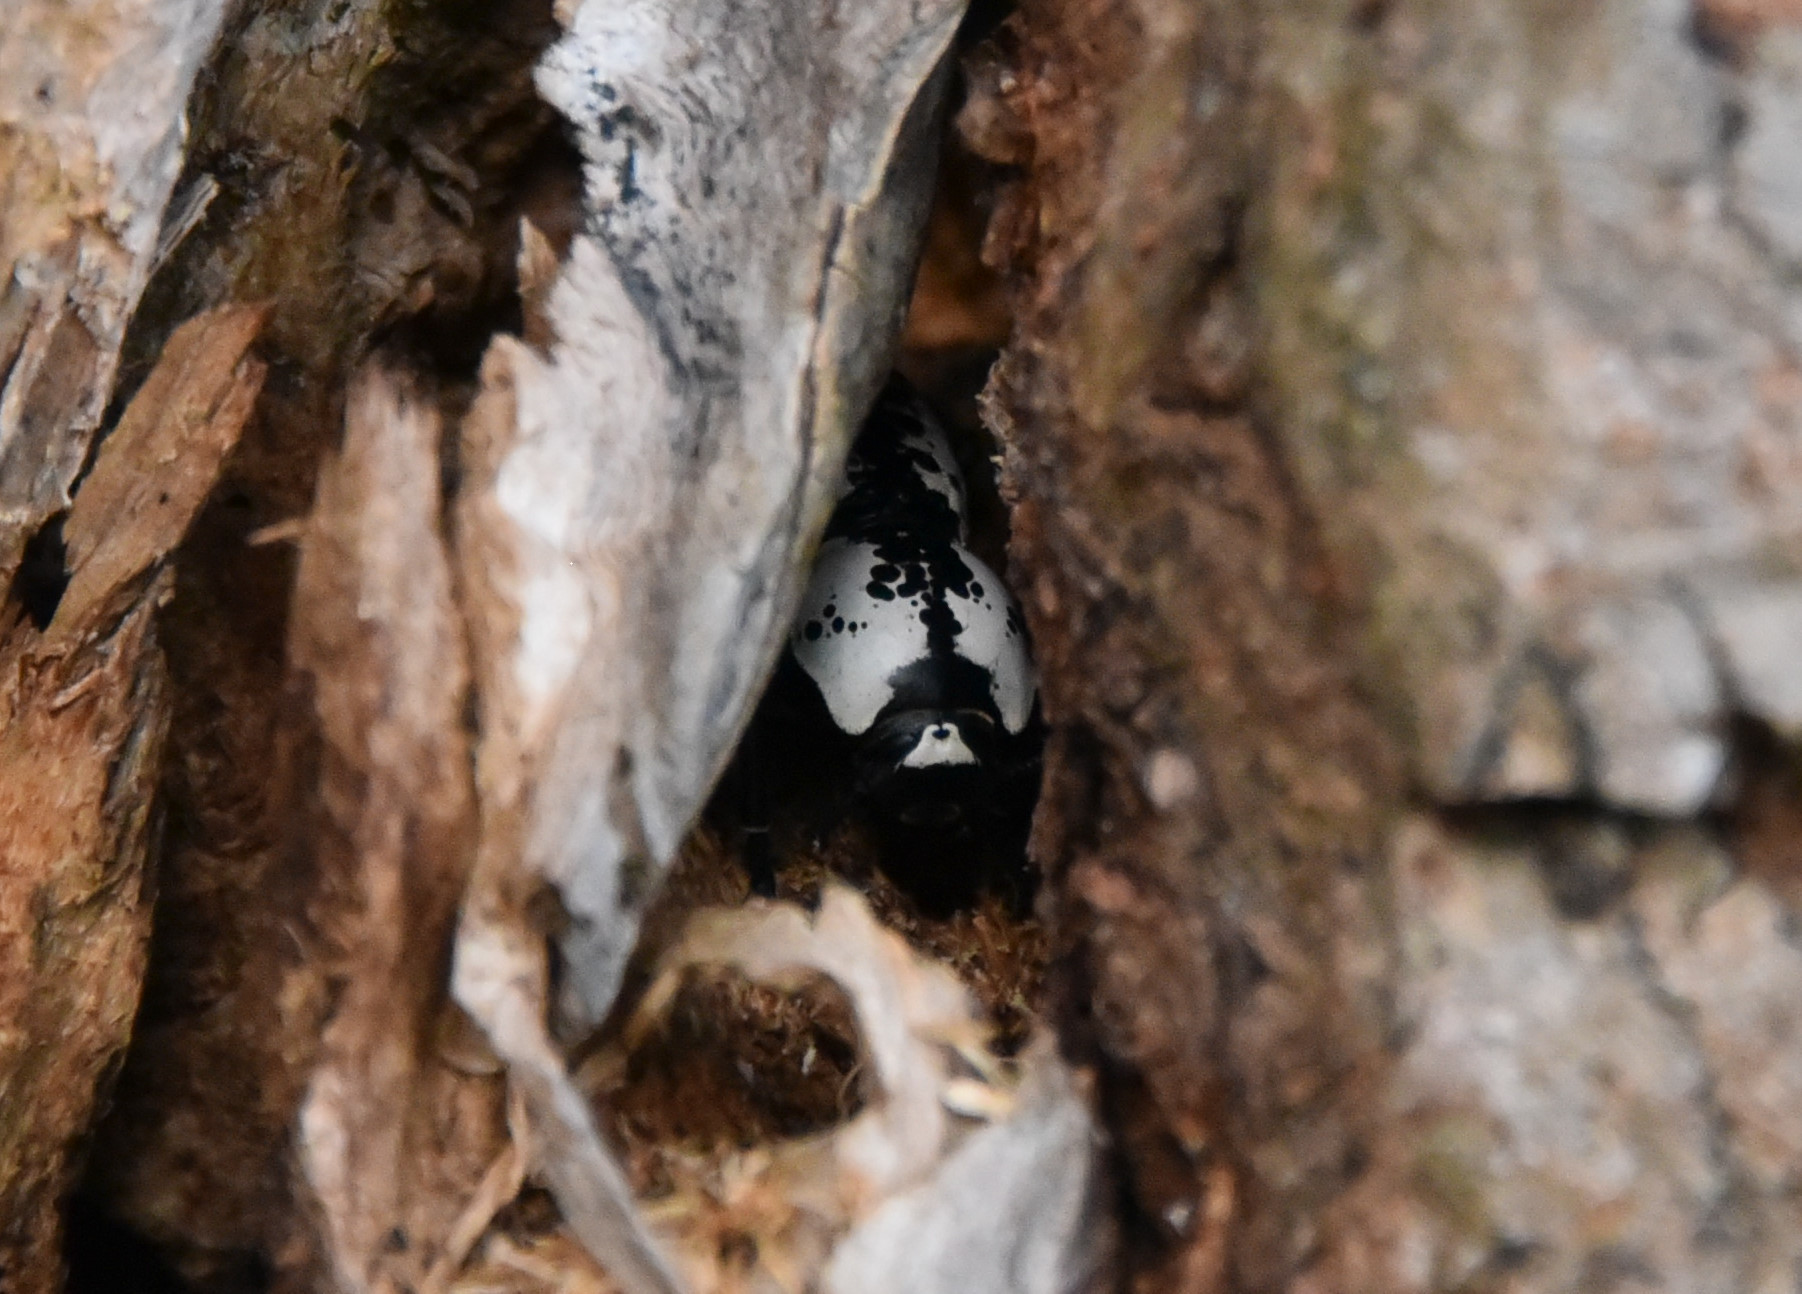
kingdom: Animalia
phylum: Arthropoda
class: Insecta
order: Coleoptera
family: Zopheridae
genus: Zopherus
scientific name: Zopherus nodulosus
